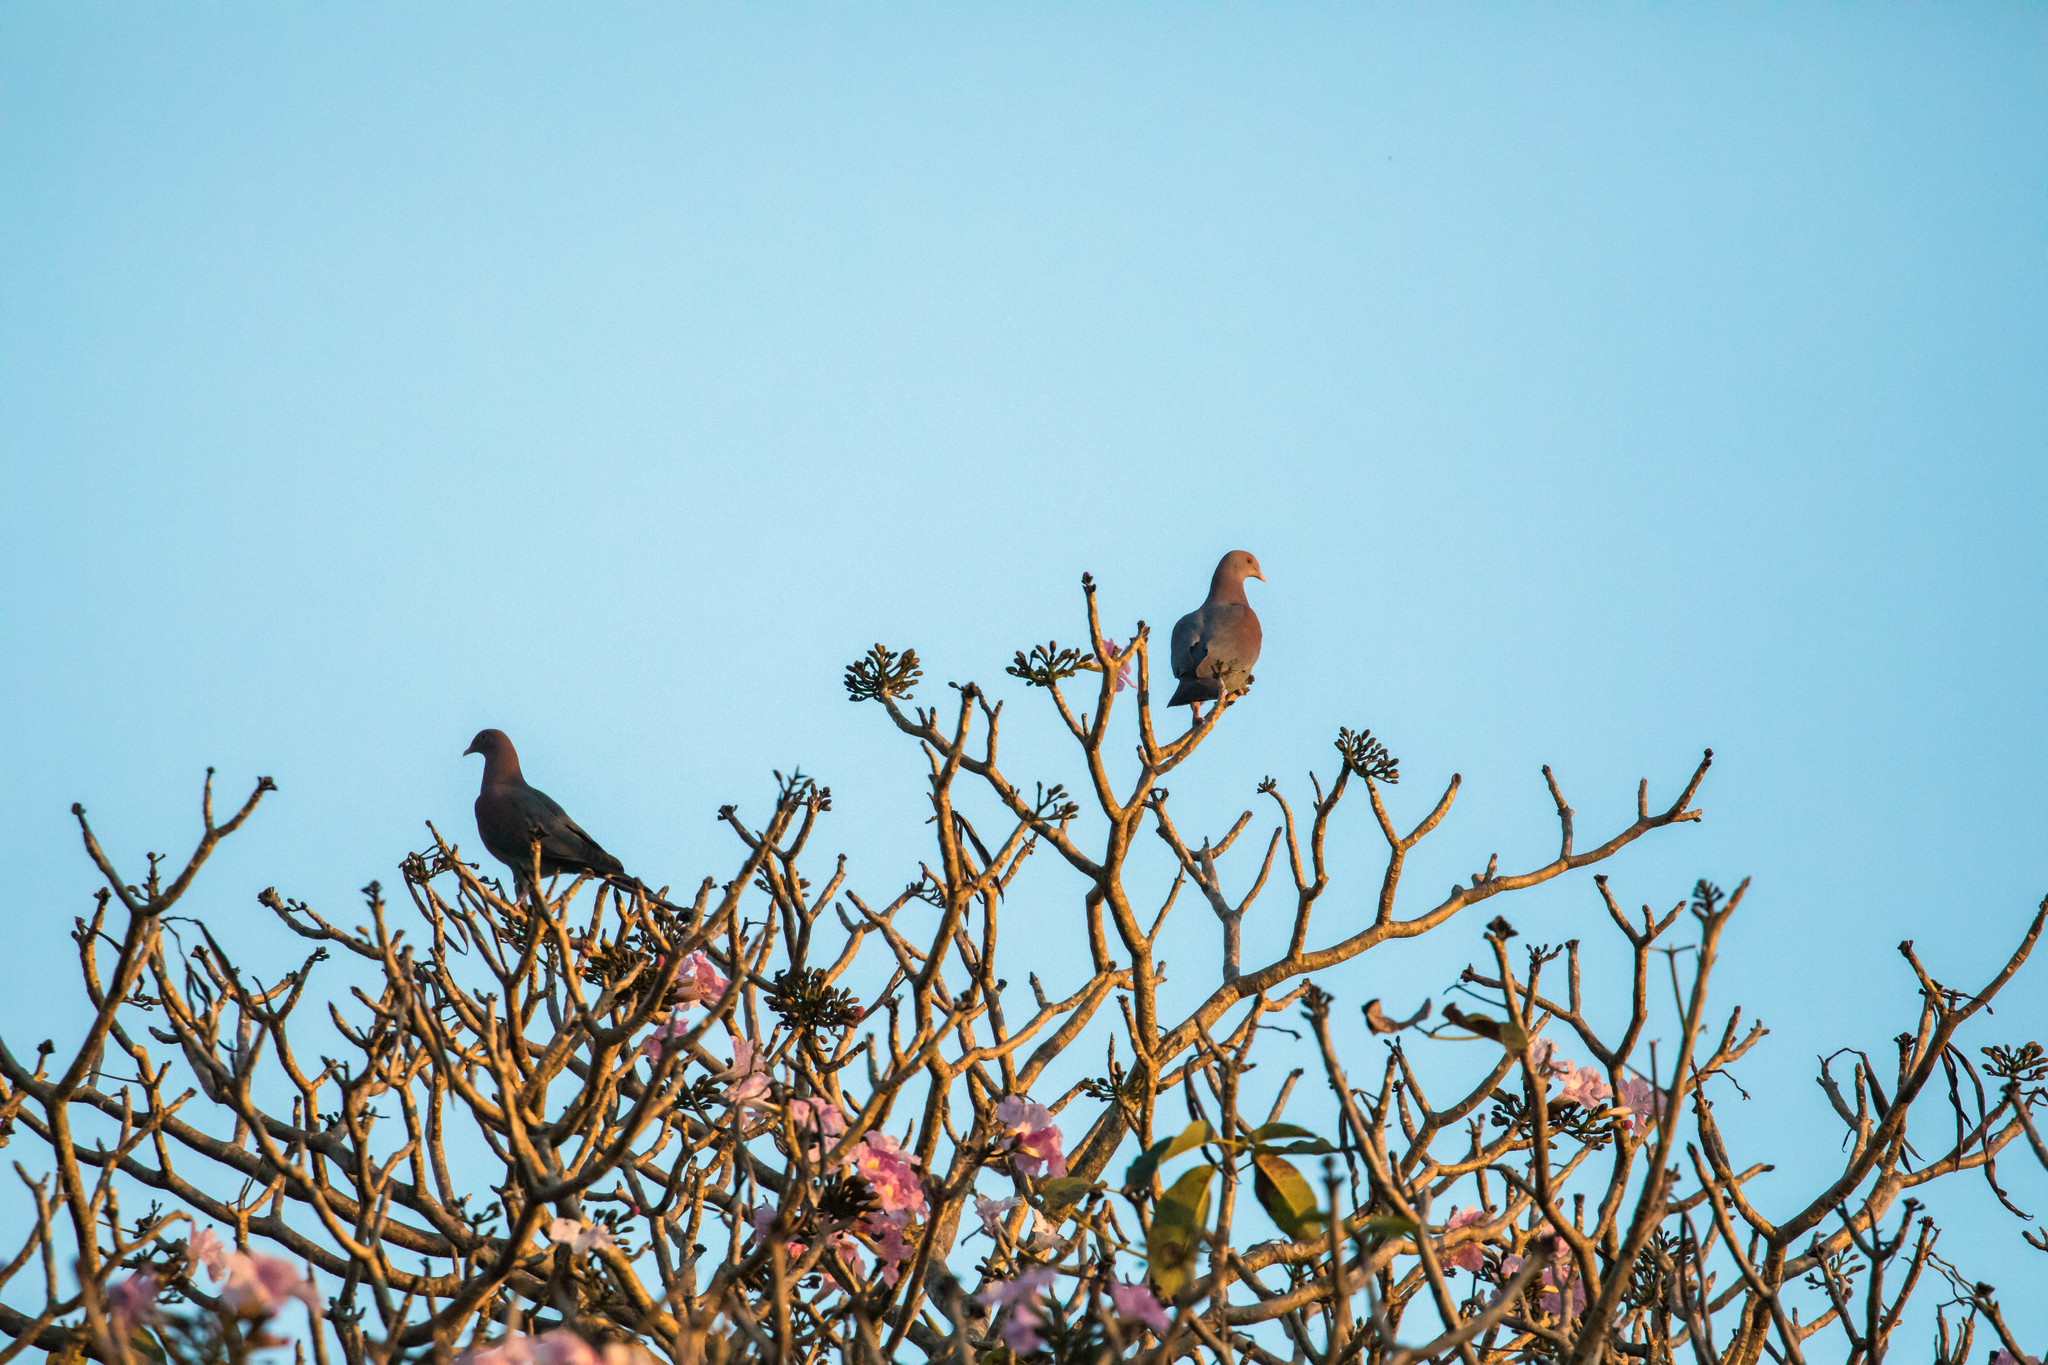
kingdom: Animalia
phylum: Chordata
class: Aves
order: Columbiformes
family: Columbidae
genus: Patagioenas
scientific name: Patagioenas flavirostris
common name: Red-billed pigeon
